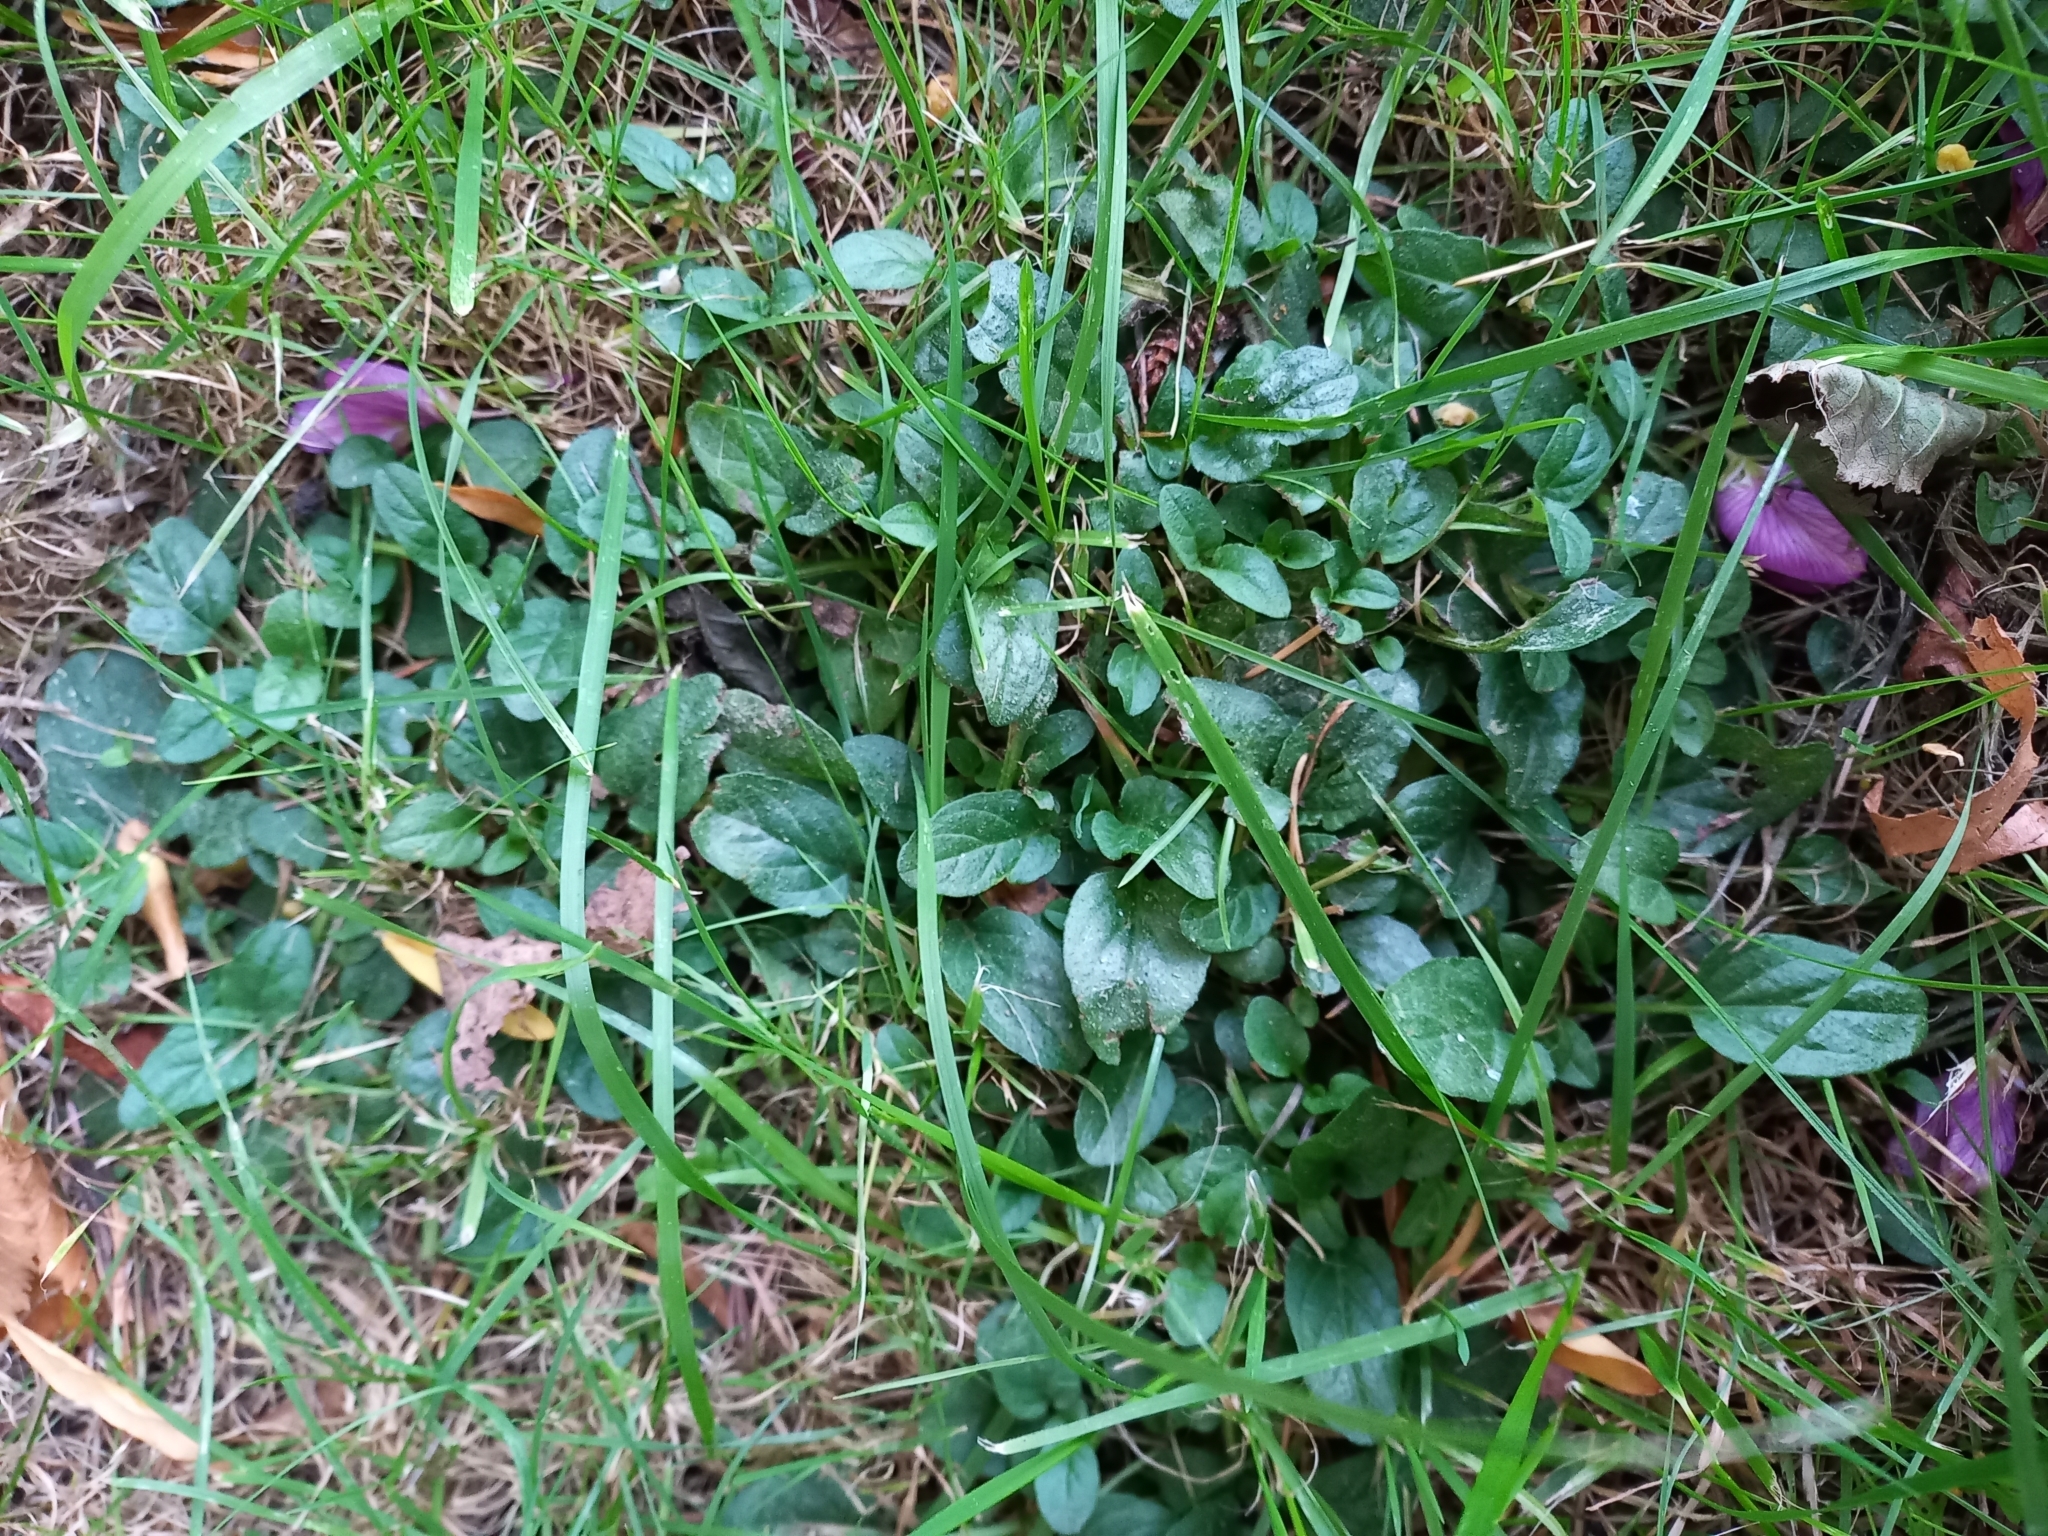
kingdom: Plantae
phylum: Tracheophyta
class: Magnoliopsida
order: Lamiales
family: Lamiaceae
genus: Prunella
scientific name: Prunella vulgaris
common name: Heal-all
